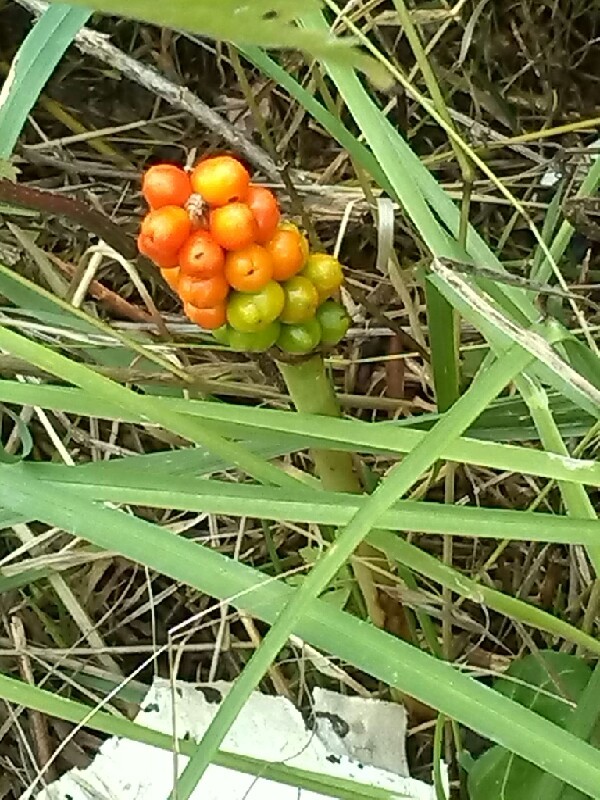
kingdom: Plantae
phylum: Tracheophyta
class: Liliopsida
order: Alismatales
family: Araceae
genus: Arum
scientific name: Arum
